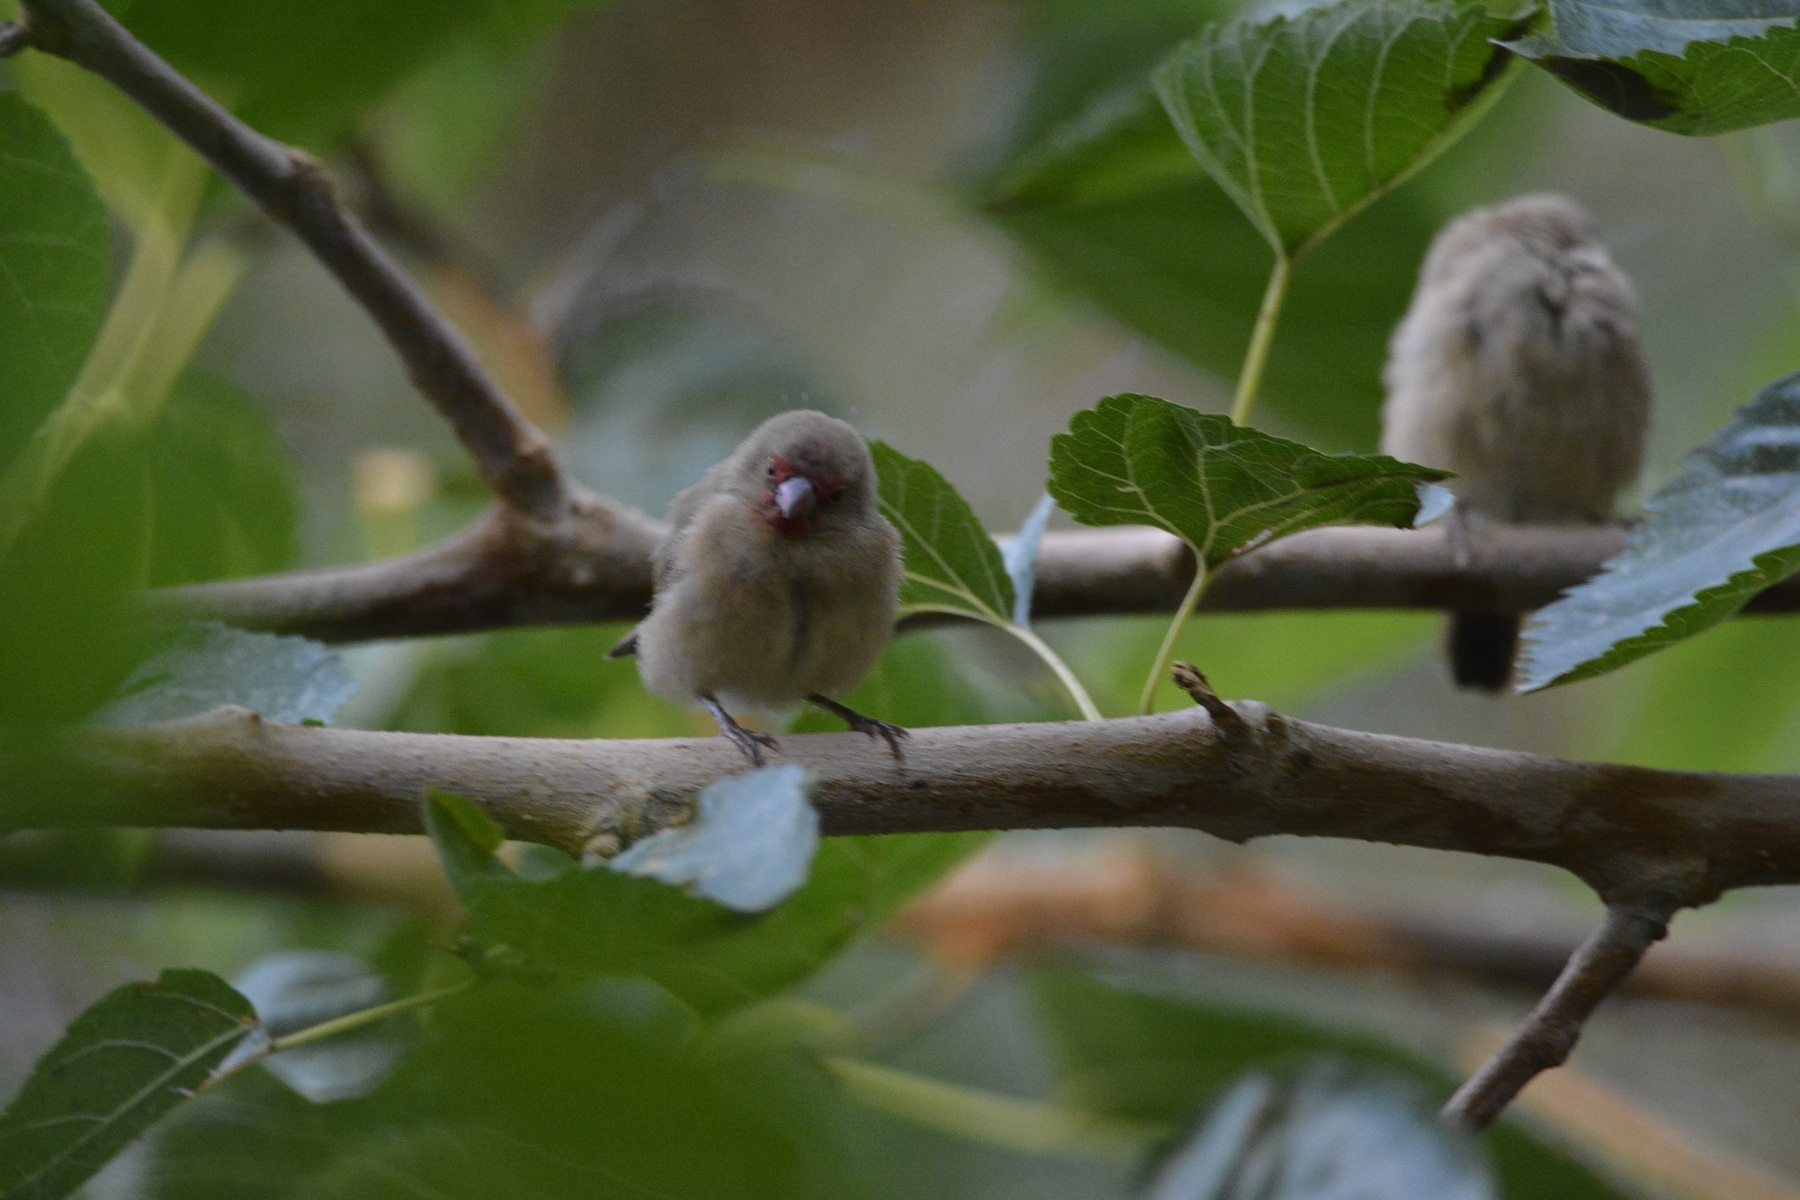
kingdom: Animalia
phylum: Chordata
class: Aves
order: Passeriformes
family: Estrildidae
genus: Lagonosticta
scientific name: Lagonosticta senegala
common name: Red-billed firefinch
